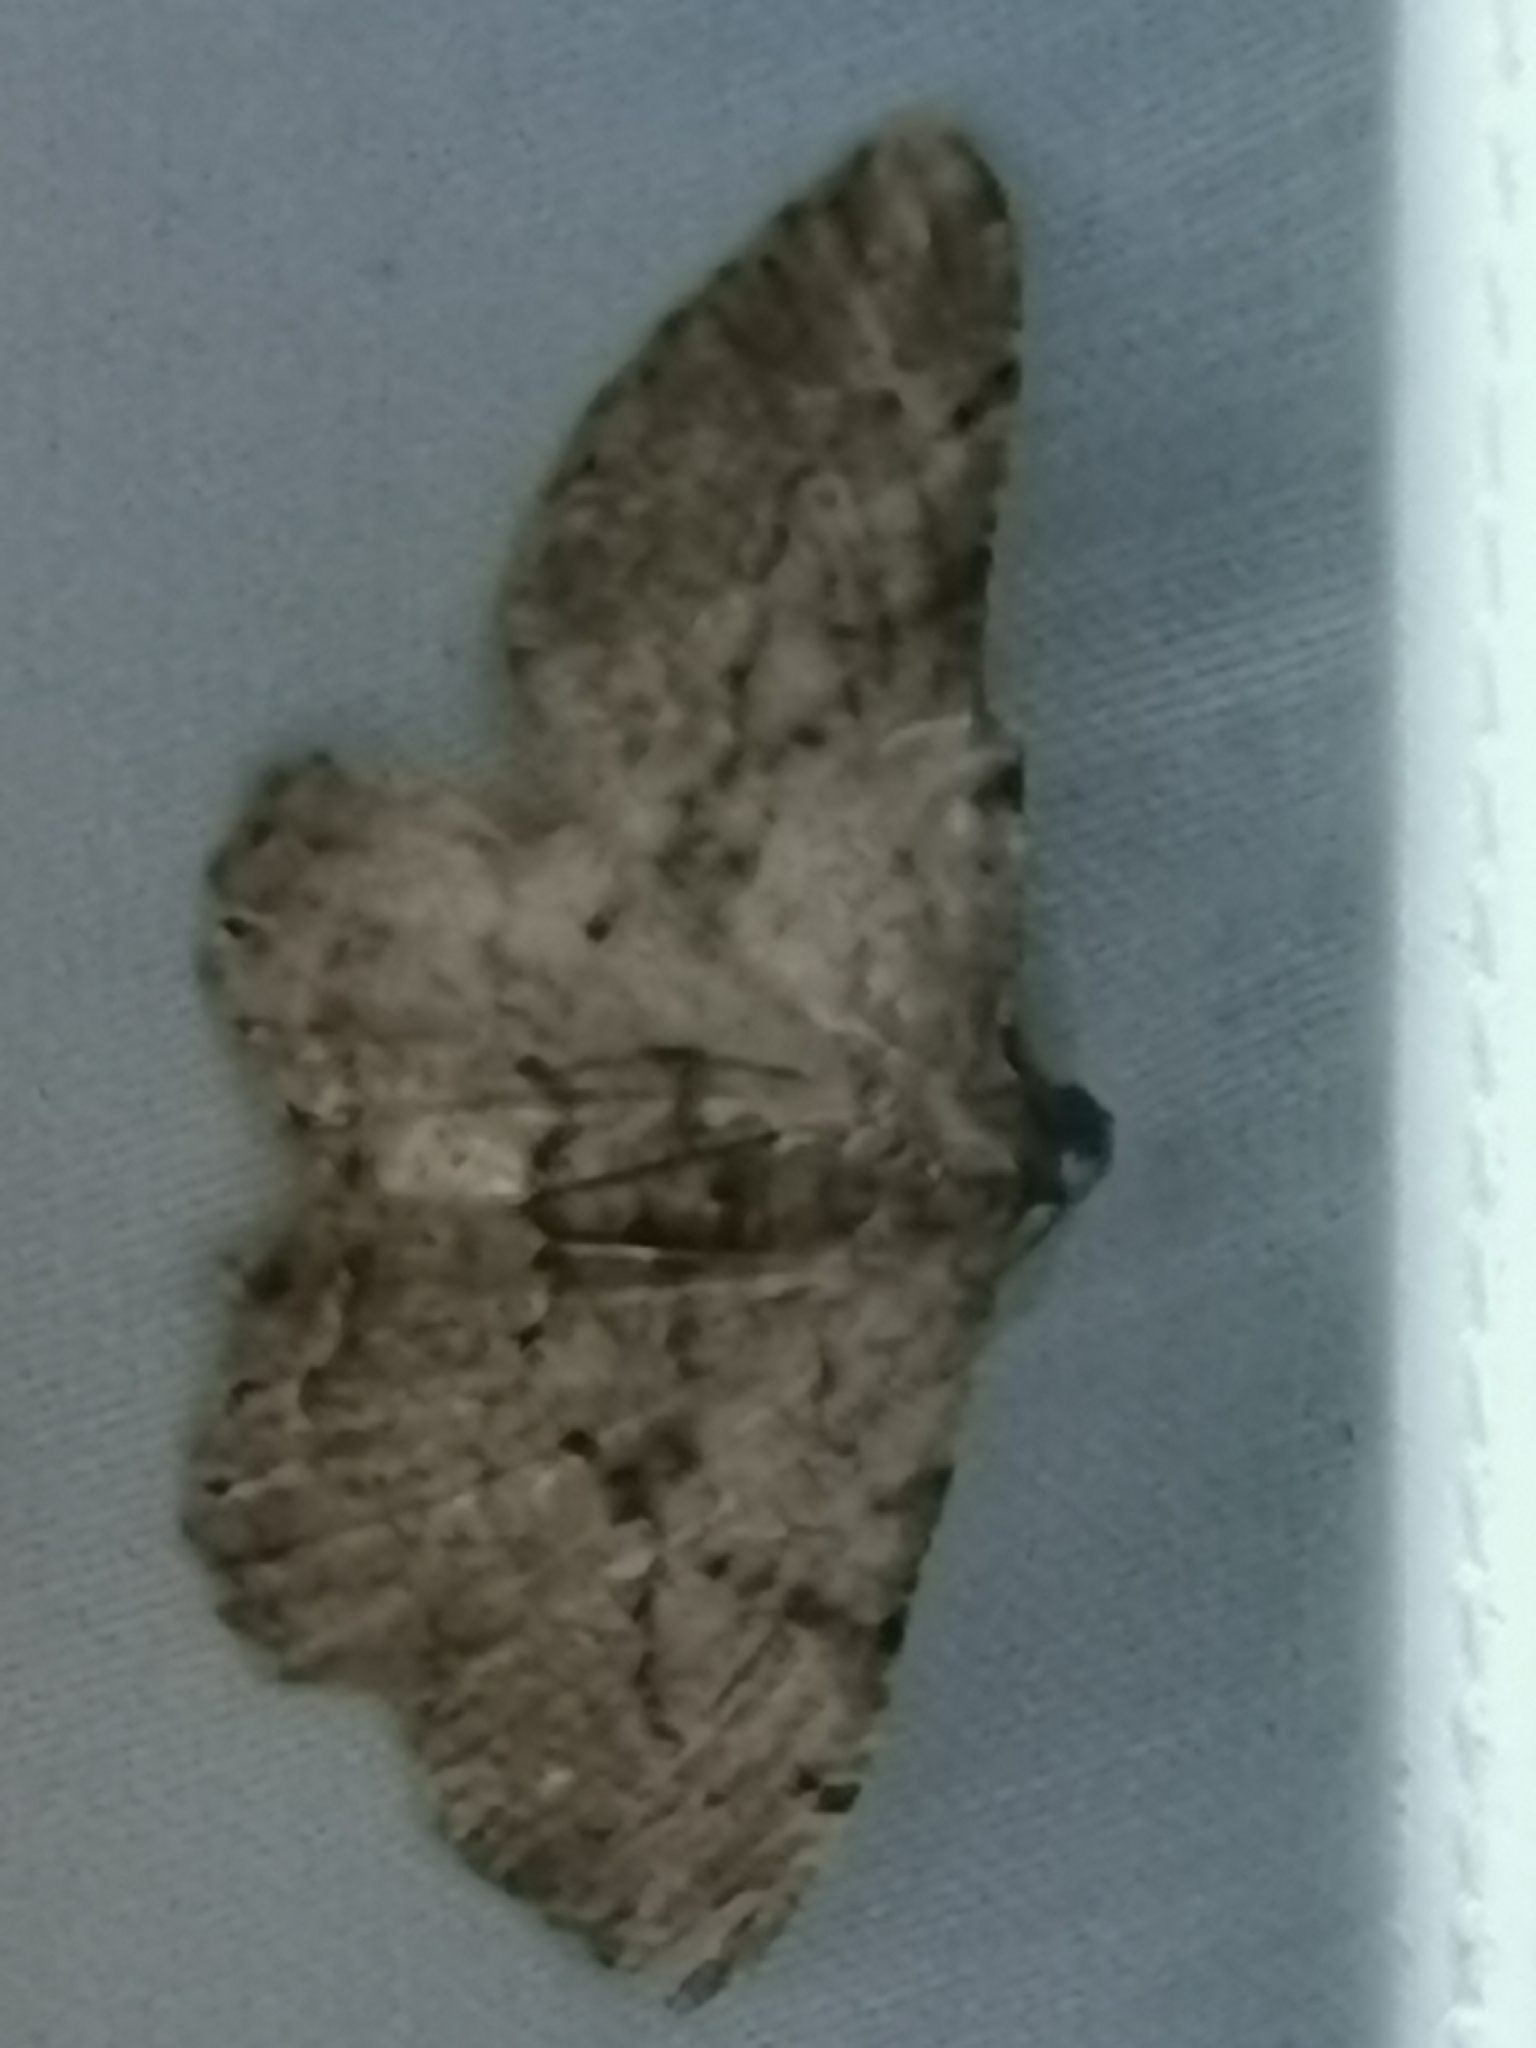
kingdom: Animalia
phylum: Arthropoda
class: Insecta
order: Lepidoptera
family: Geometridae
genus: Peribatodes
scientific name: Peribatodes rhomboidaria
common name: Willow beauty
